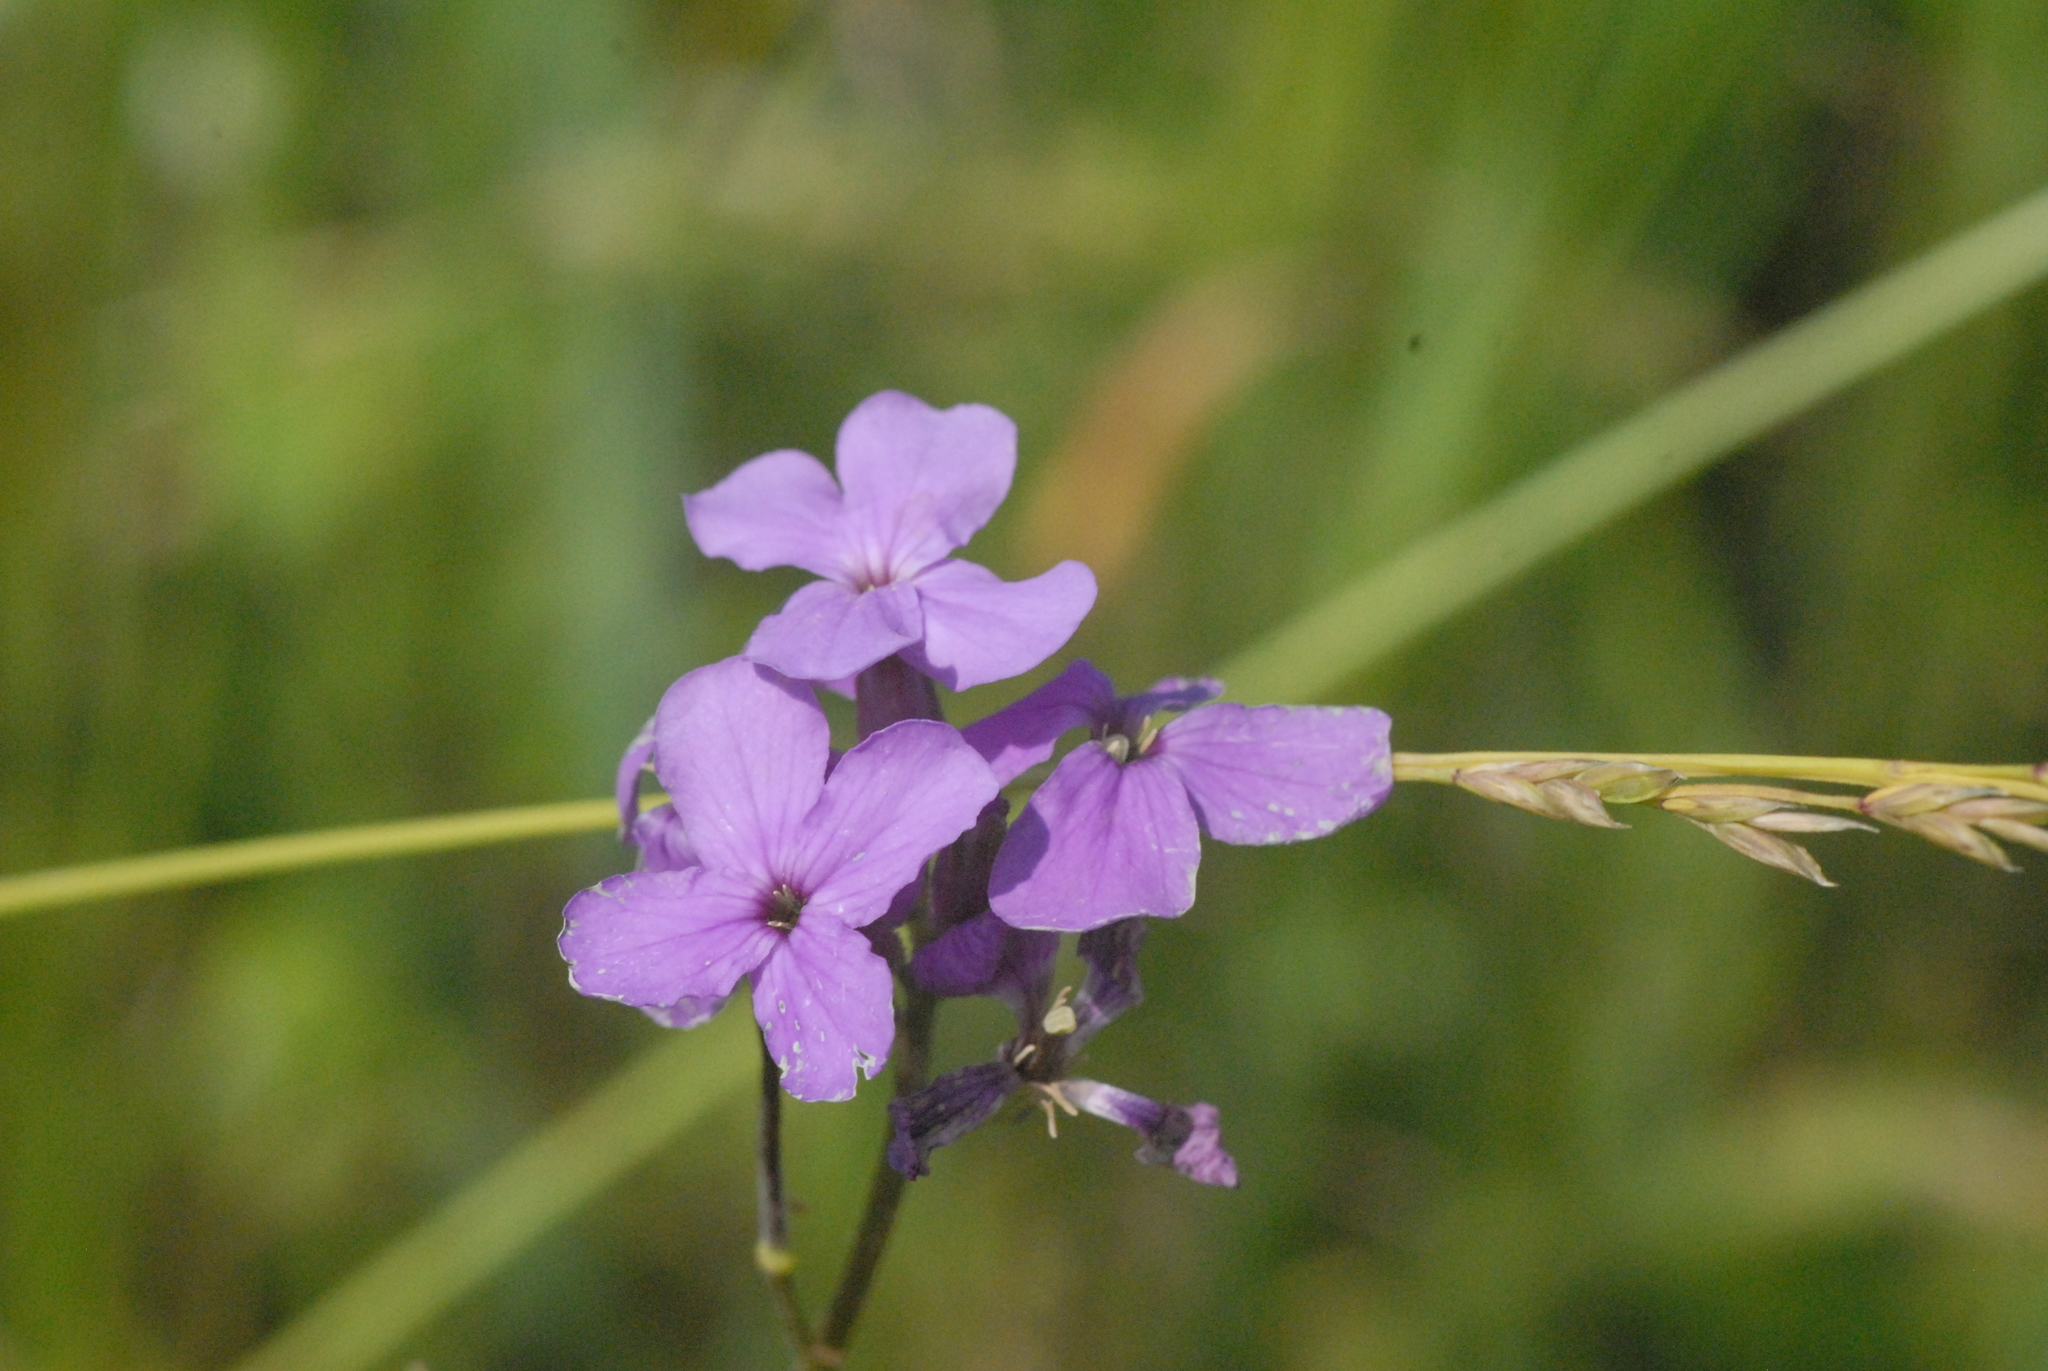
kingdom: Plantae
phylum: Tracheophyta
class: Magnoliopsida
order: Brassicales
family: Brassicaceae
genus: Hesperis
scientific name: Hesperis matronalis
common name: Dame's-violet
